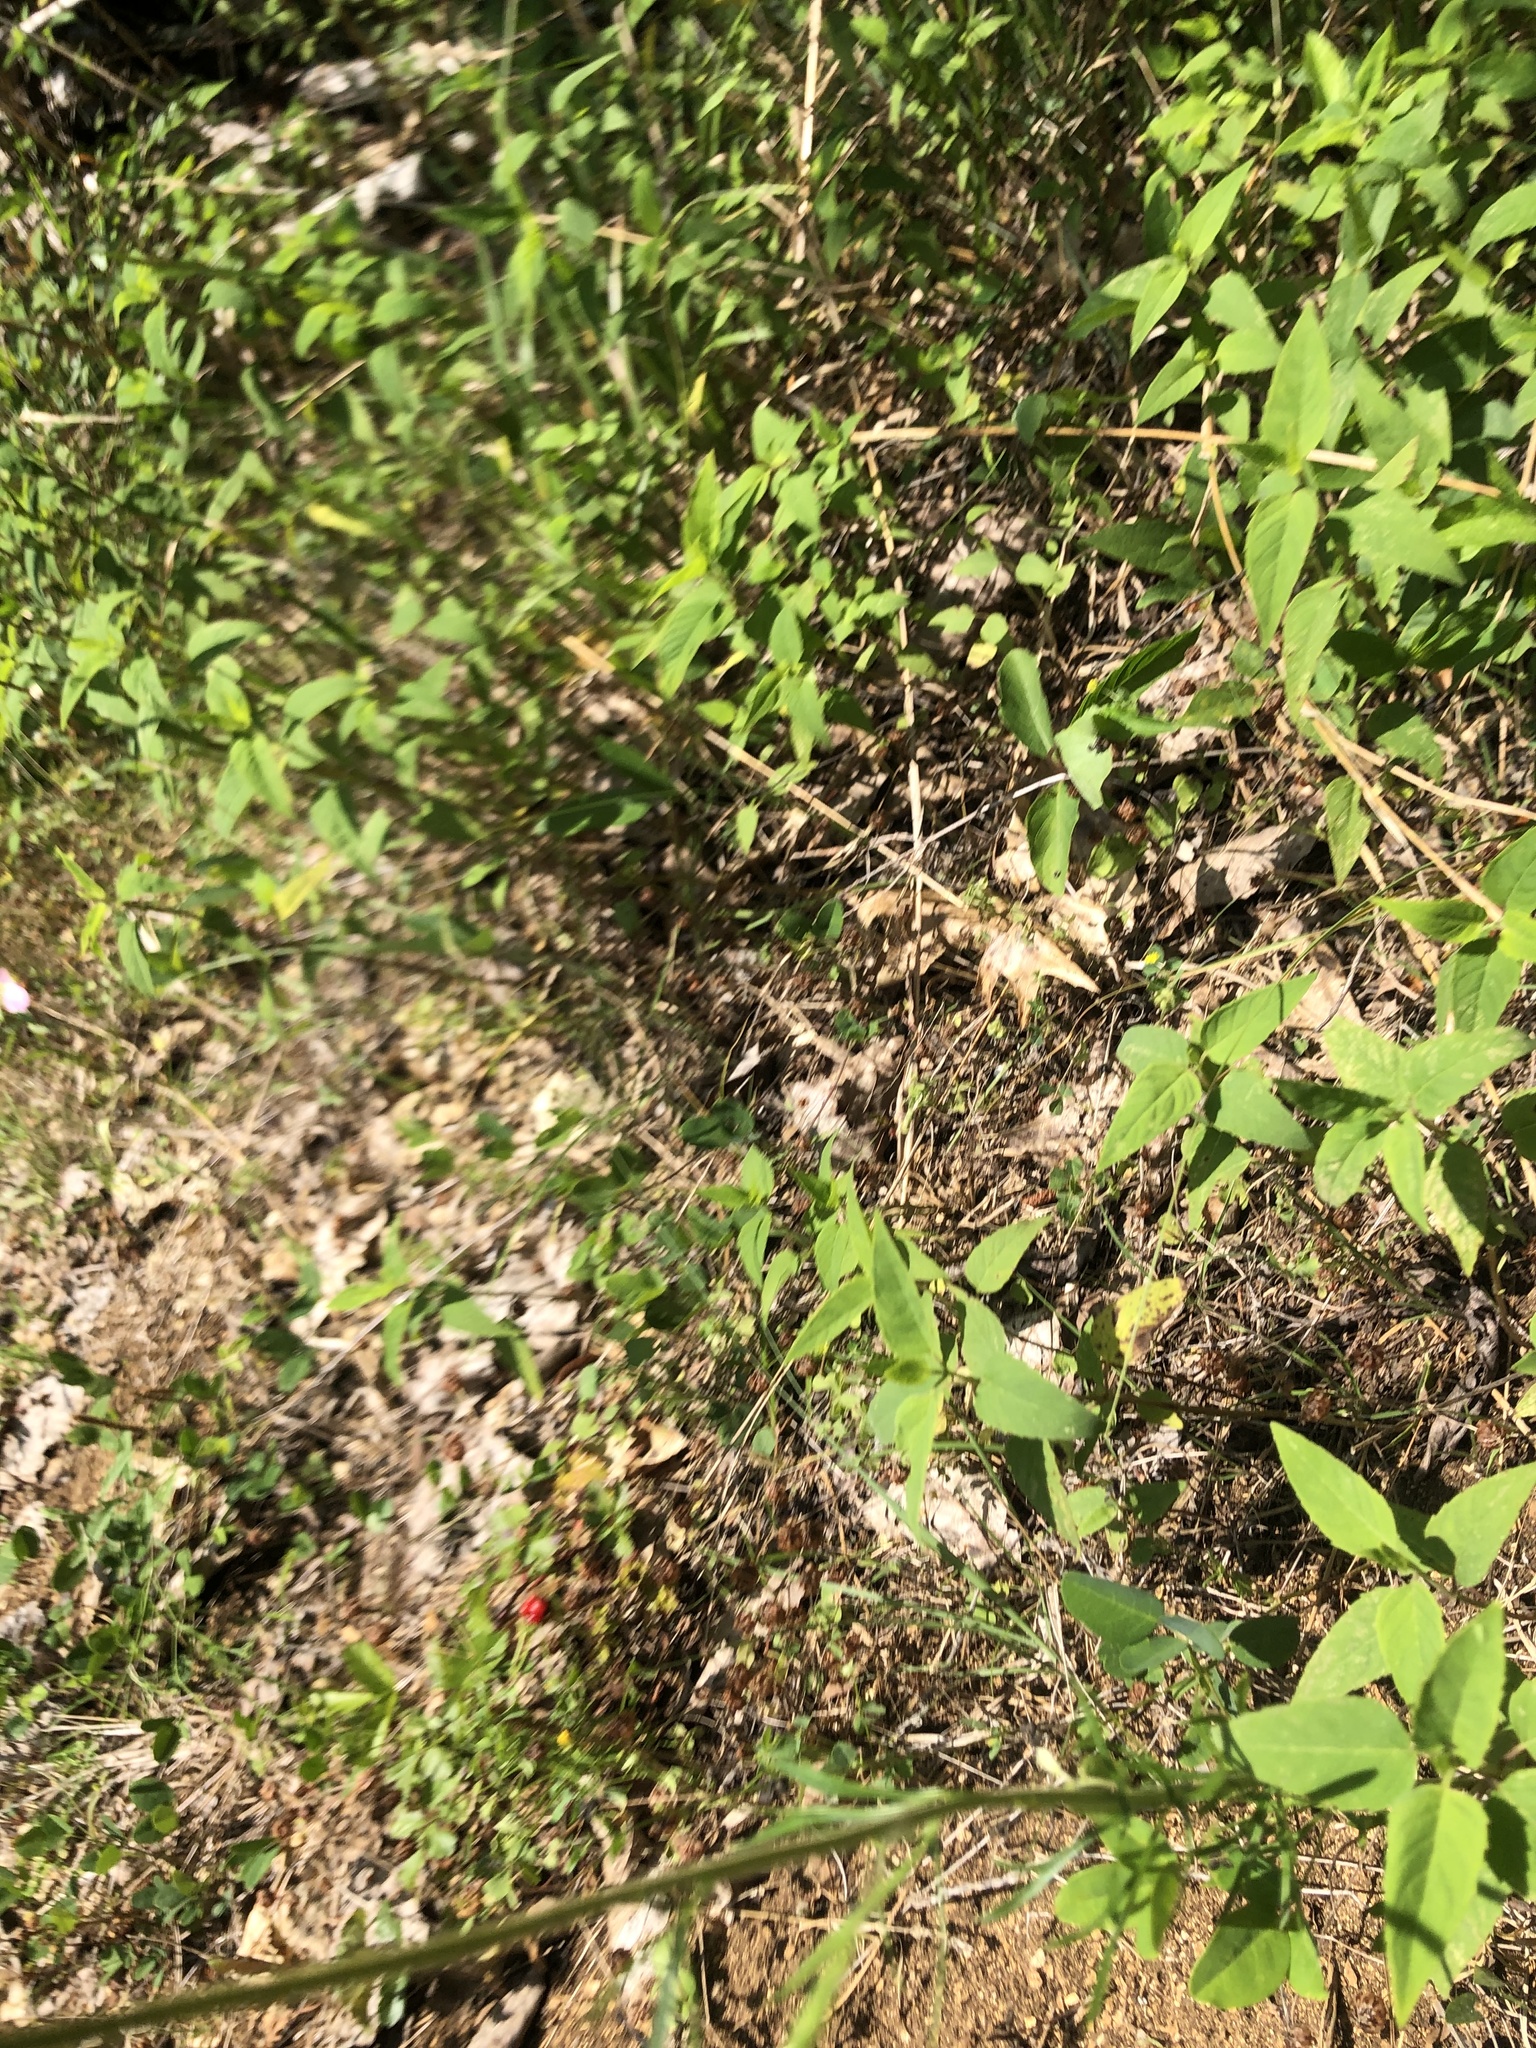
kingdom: Plantae
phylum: Tracheophyta
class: Magnoliopsida
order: Lamiales
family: Lamiaceae
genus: Monarda
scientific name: Monarda fistulosa
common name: Purple beebalm
